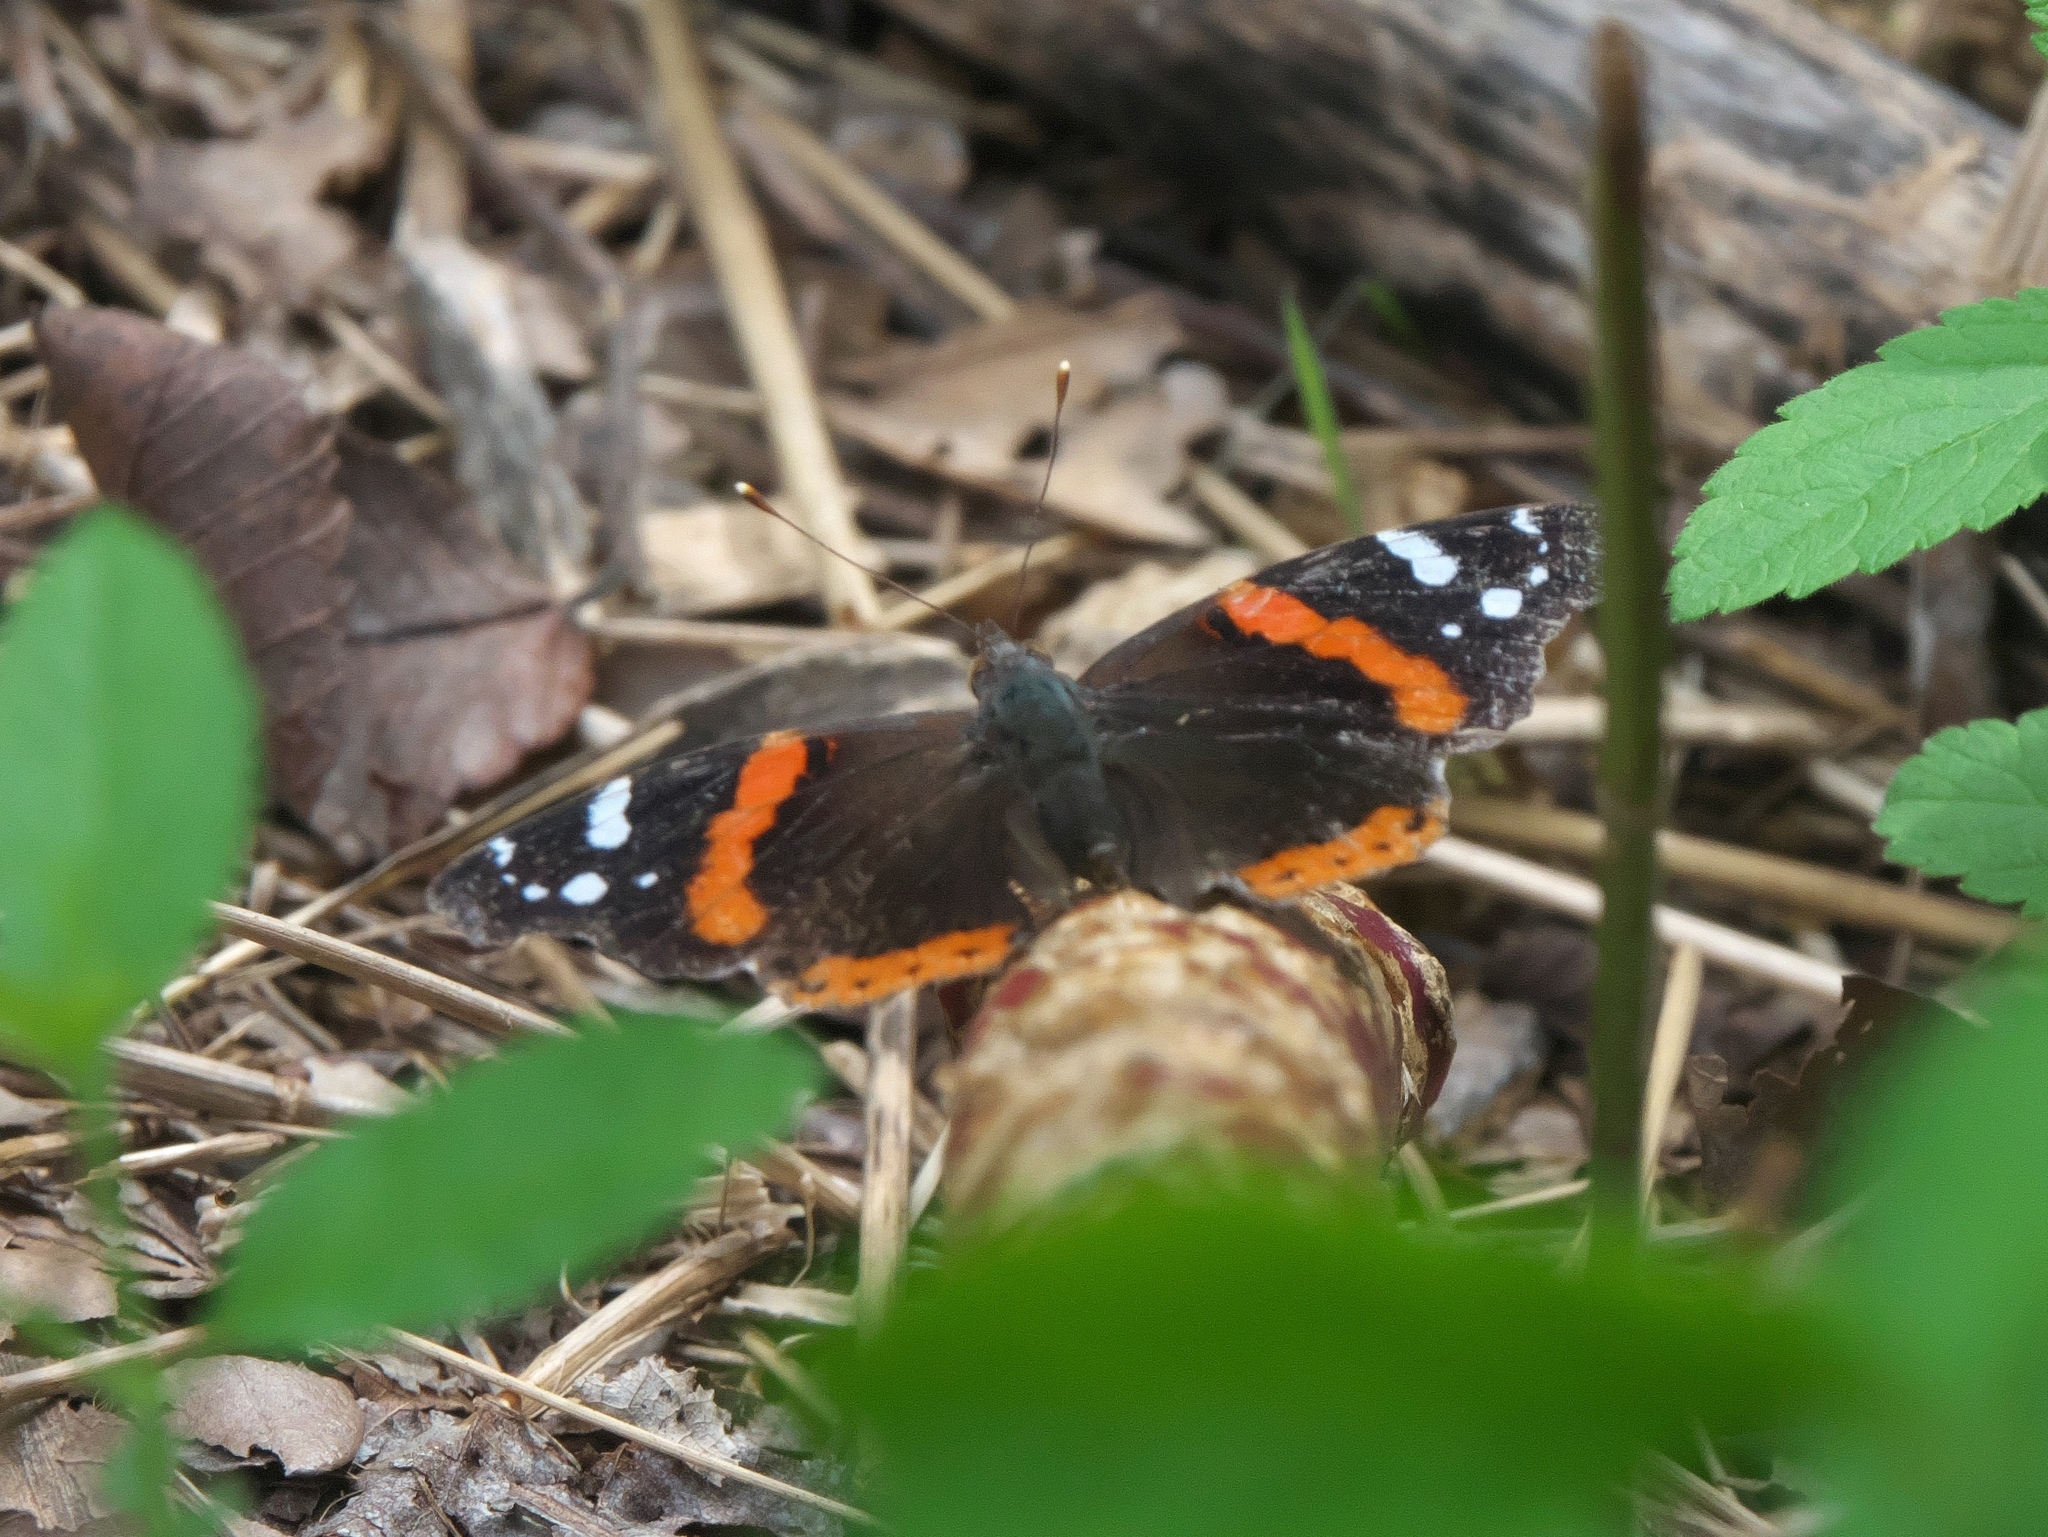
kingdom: Animalia
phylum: Arthropoda
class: Insecta
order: Lepidoptera
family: Nymphalidae
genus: Vanessa
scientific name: Vanessa atalanta
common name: Red admiral
